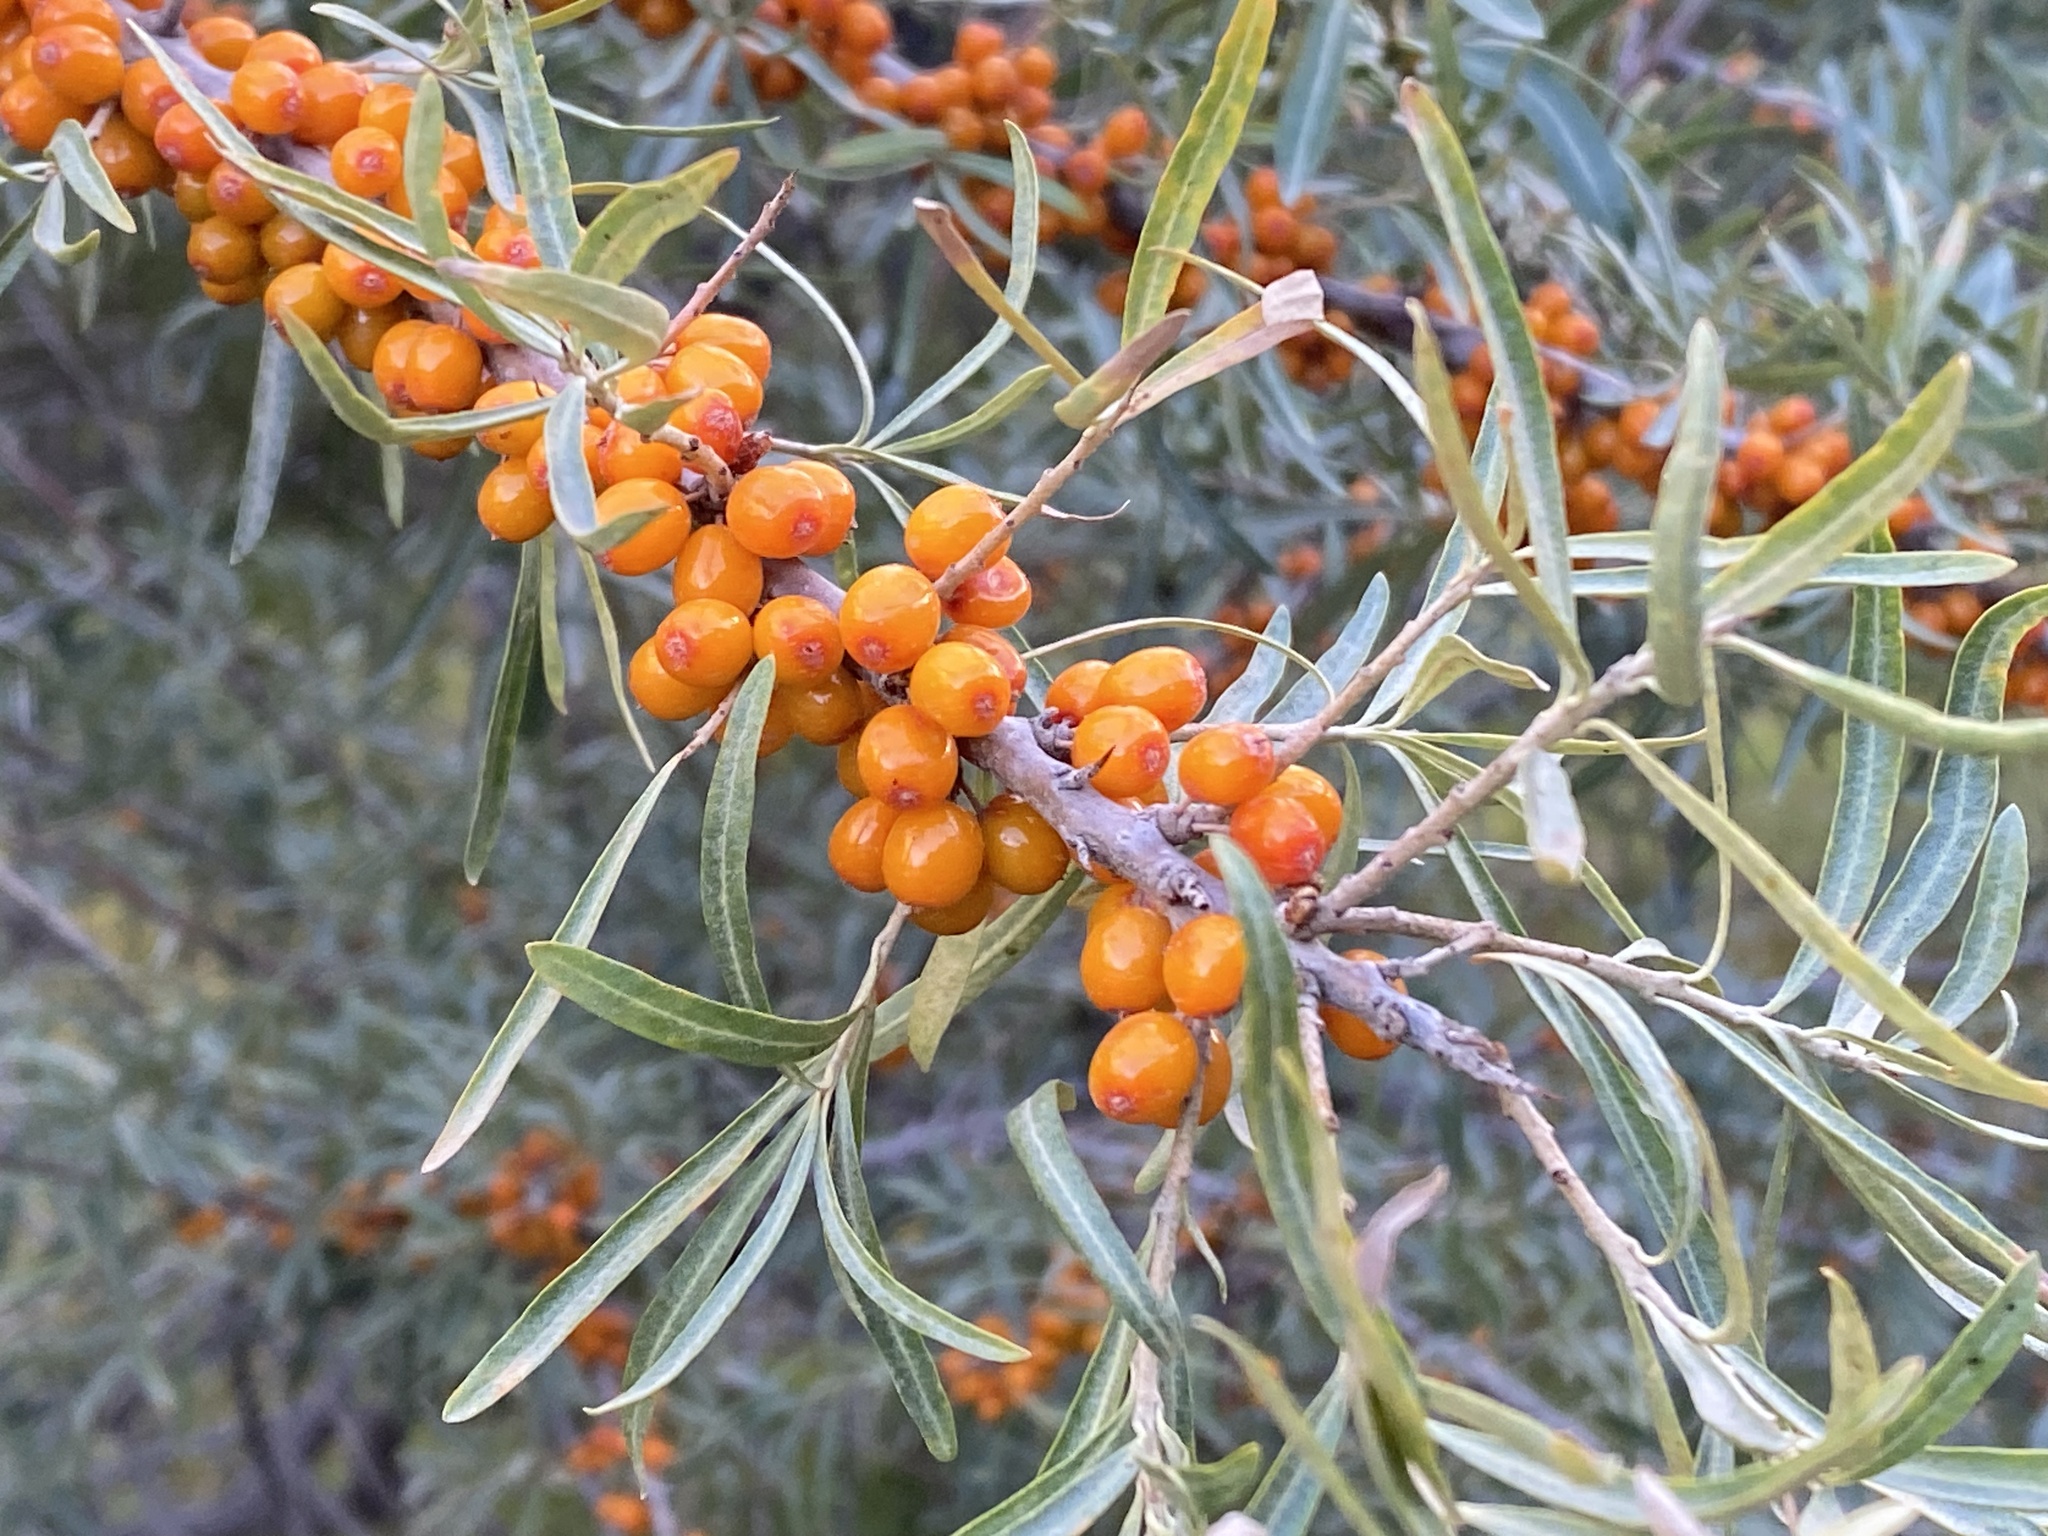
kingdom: Plantae
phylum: Tracheophyta
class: Magnoliopsida
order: Rosales
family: Elaeagnaceae
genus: Hippophae
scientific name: Hippophae rhamnoides
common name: Sea-buckthorn
